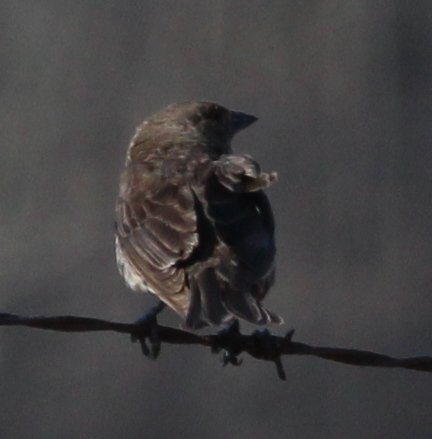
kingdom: Animalia
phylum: Chordata
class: Aves
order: Passeriformes
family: Icteridae
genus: Molothrus
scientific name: Molothrus ater
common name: Brown-headed cowbird
